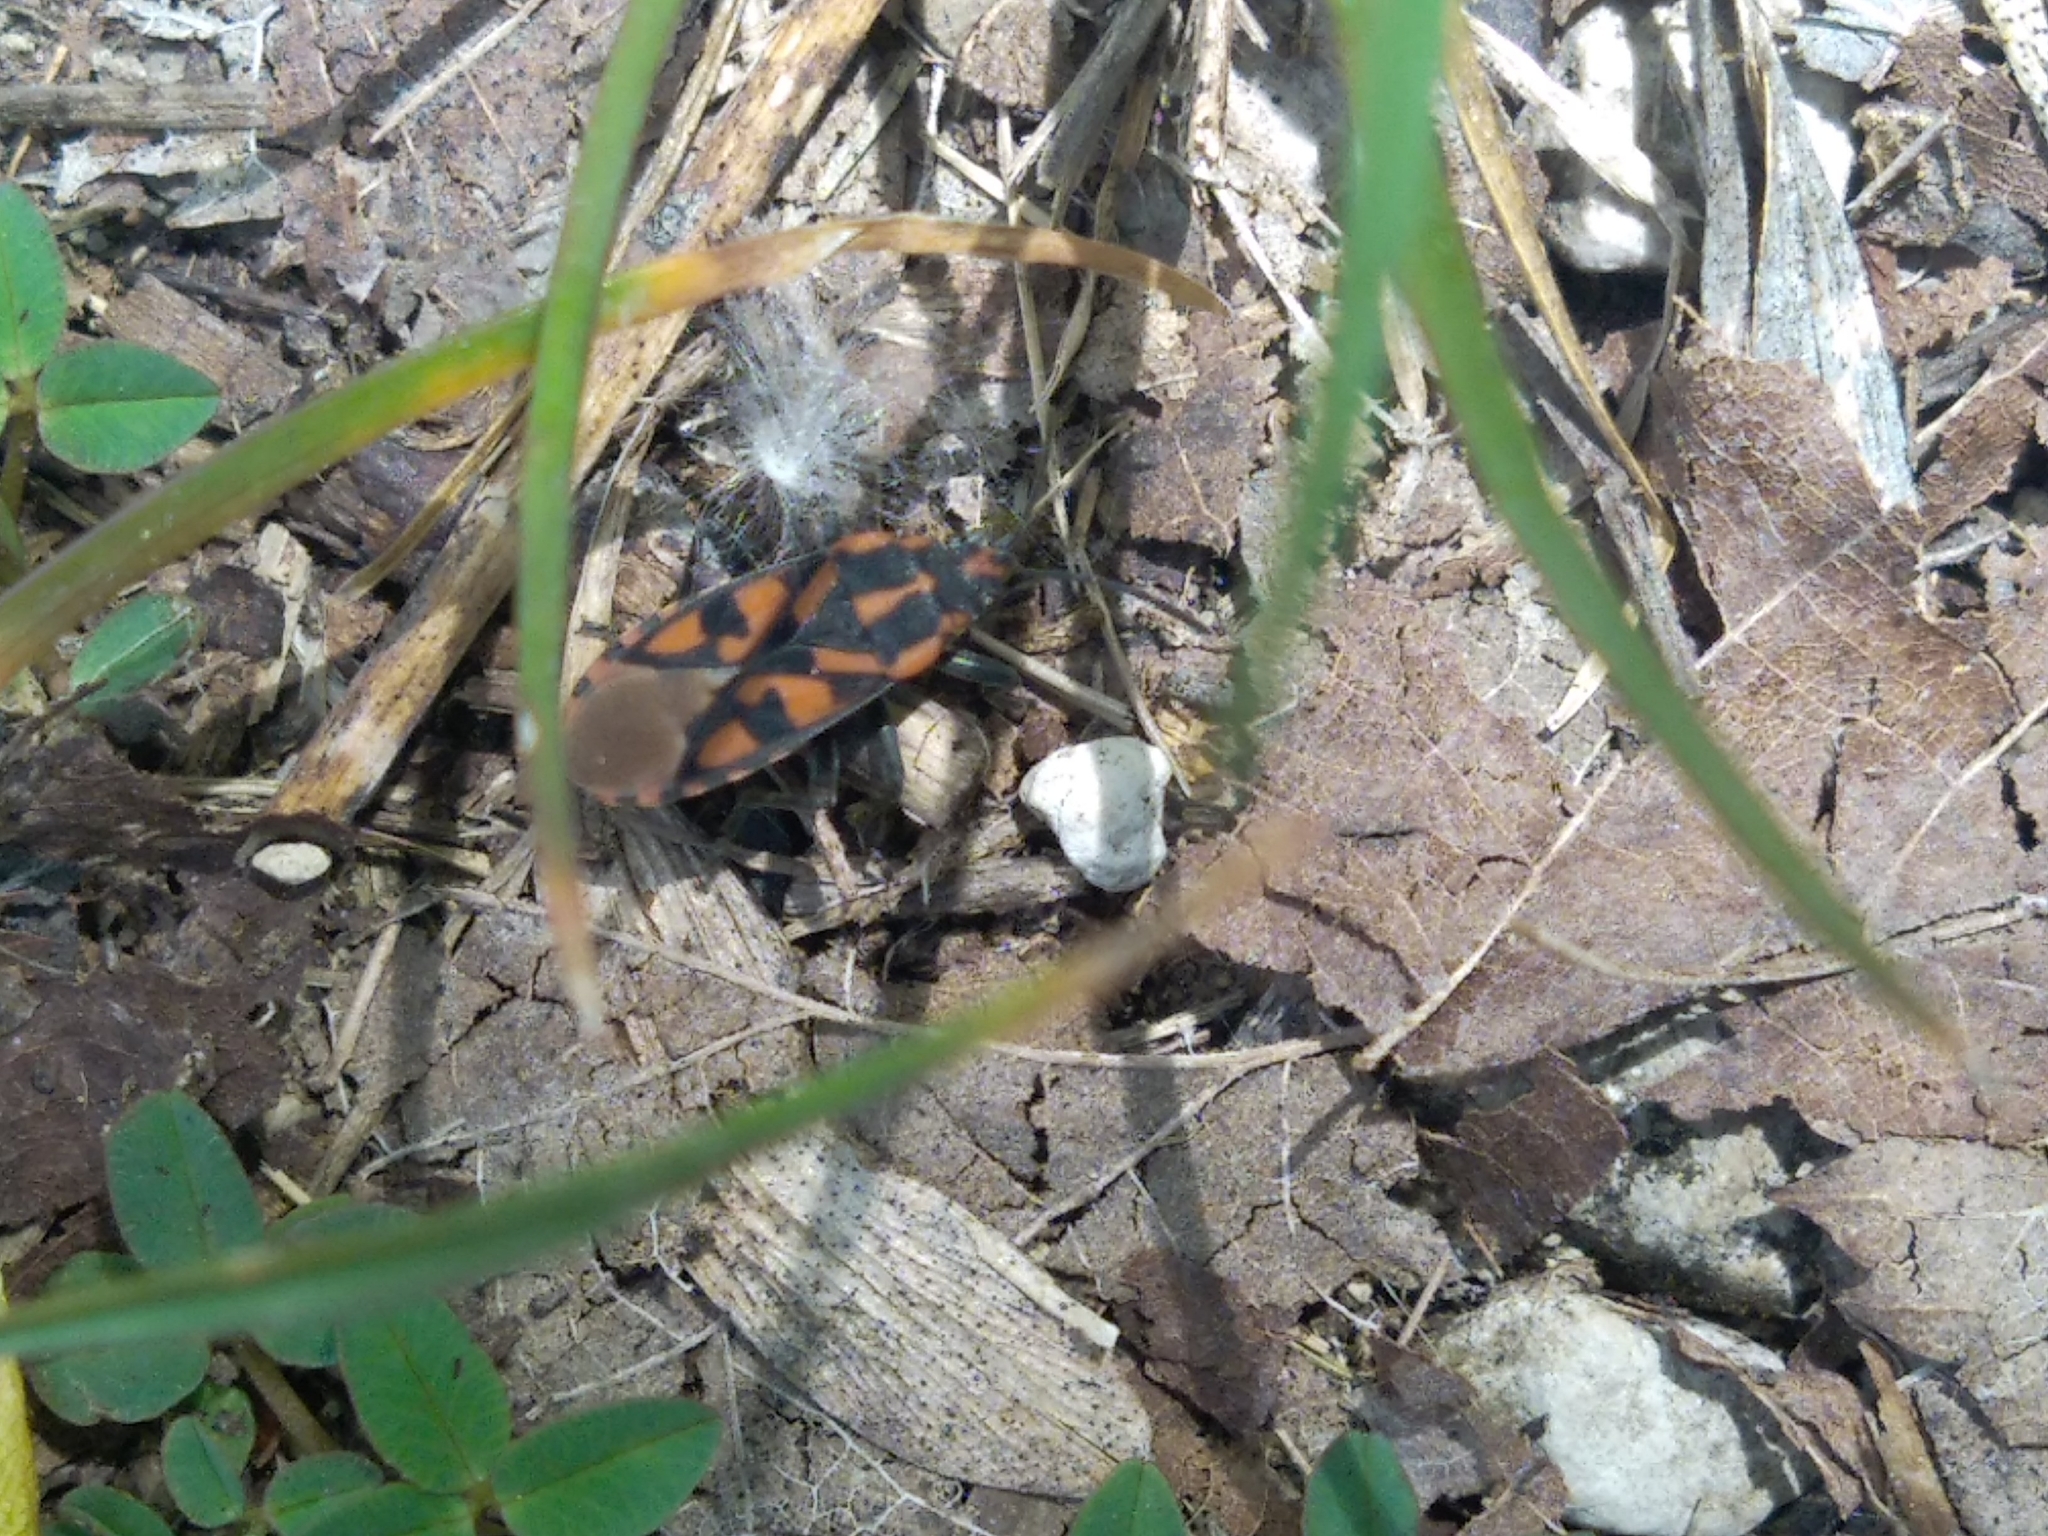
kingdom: Animalia
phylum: Arthropoda
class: Insecta
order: Hemiptera
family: Lygaeidae
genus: Spilostethus
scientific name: Spilostethus saxatilis
